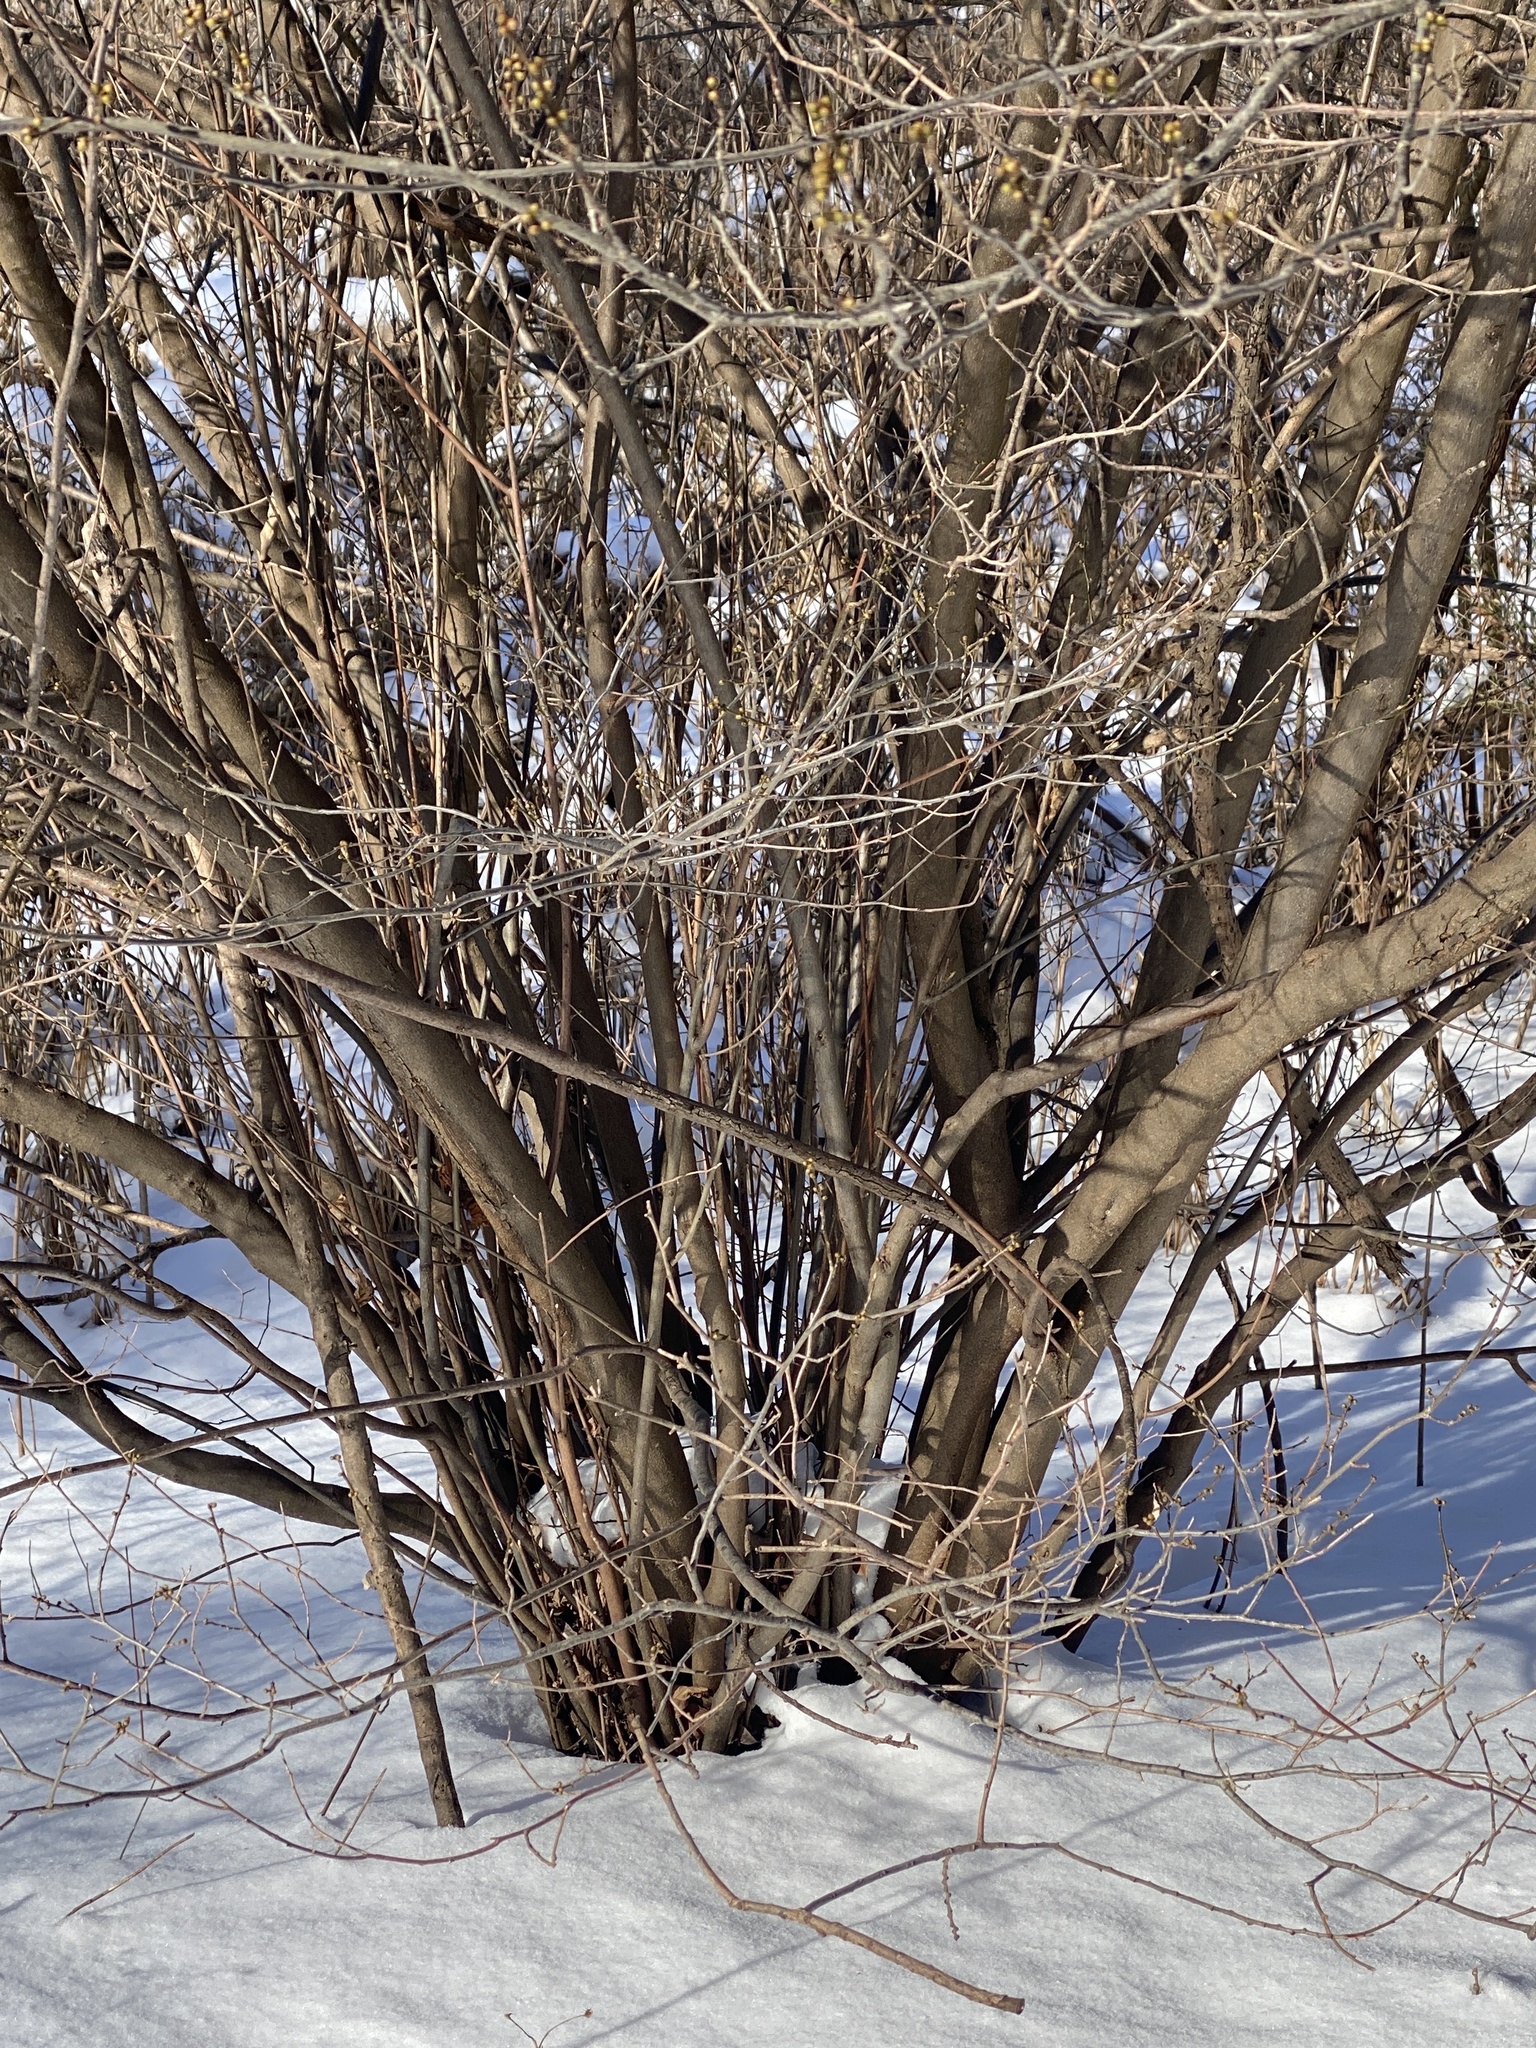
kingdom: Plantae
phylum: Tracheophyta
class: Magnoliopsida
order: Laurales
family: Lauraceae
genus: Lindera
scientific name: Lindera benzoin
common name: Spicebush
